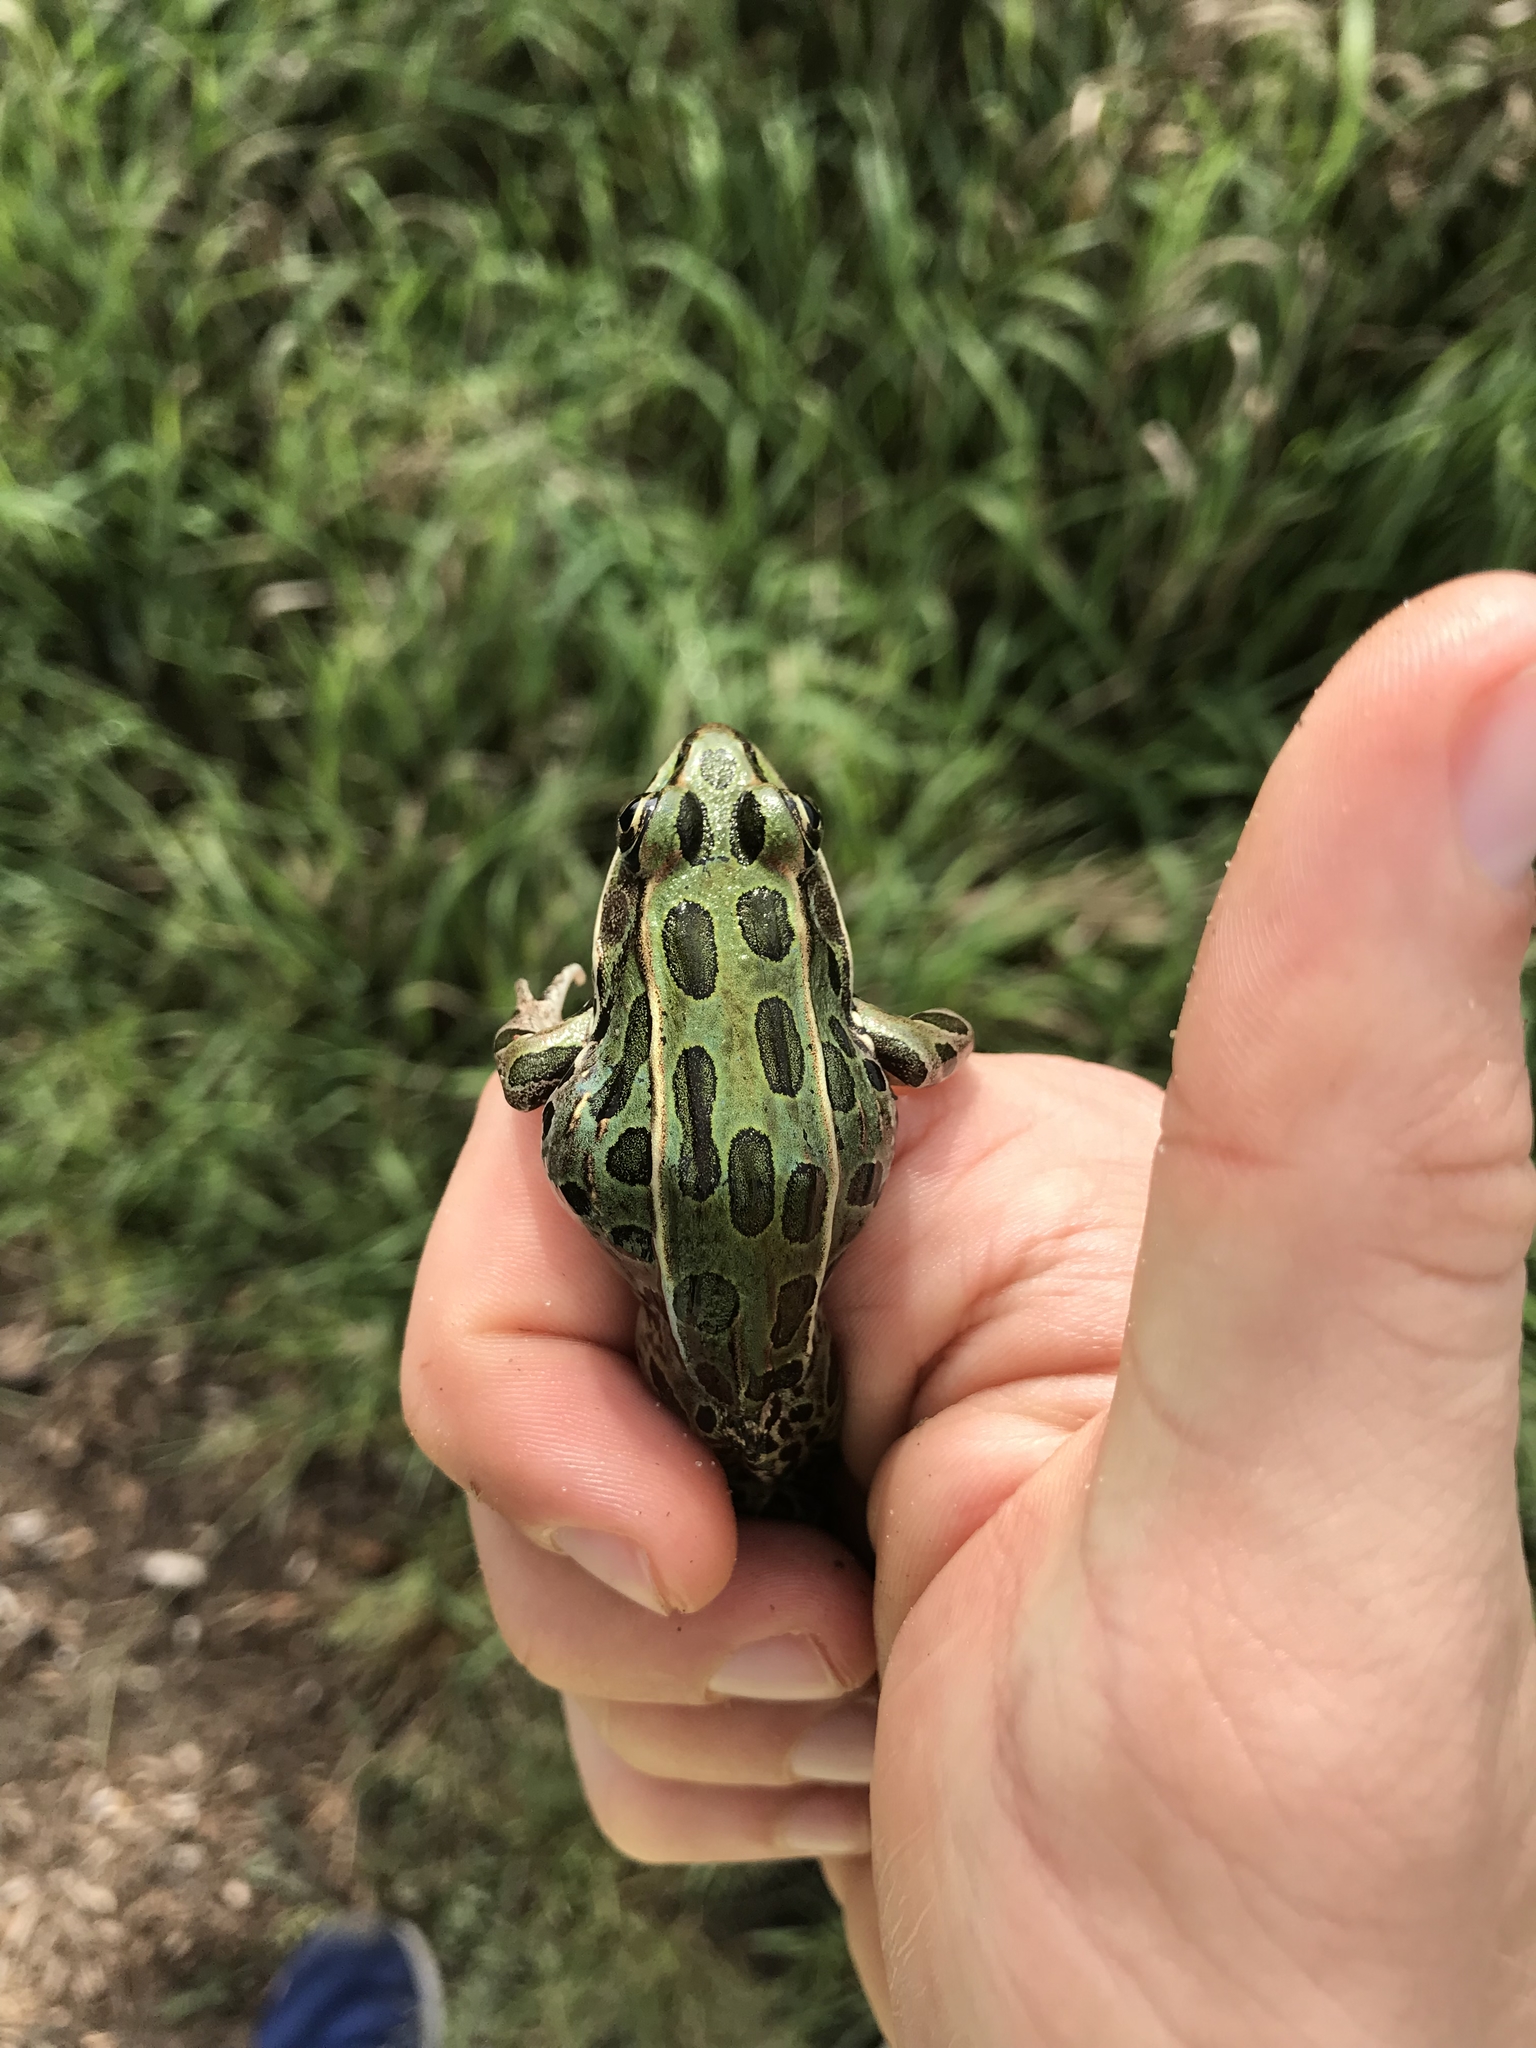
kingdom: Animalia
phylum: Chordata
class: Amphibia
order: Anura
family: Ranidae
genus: Lithobates
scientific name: Lithobates pipiens
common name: Northern leopard frog
